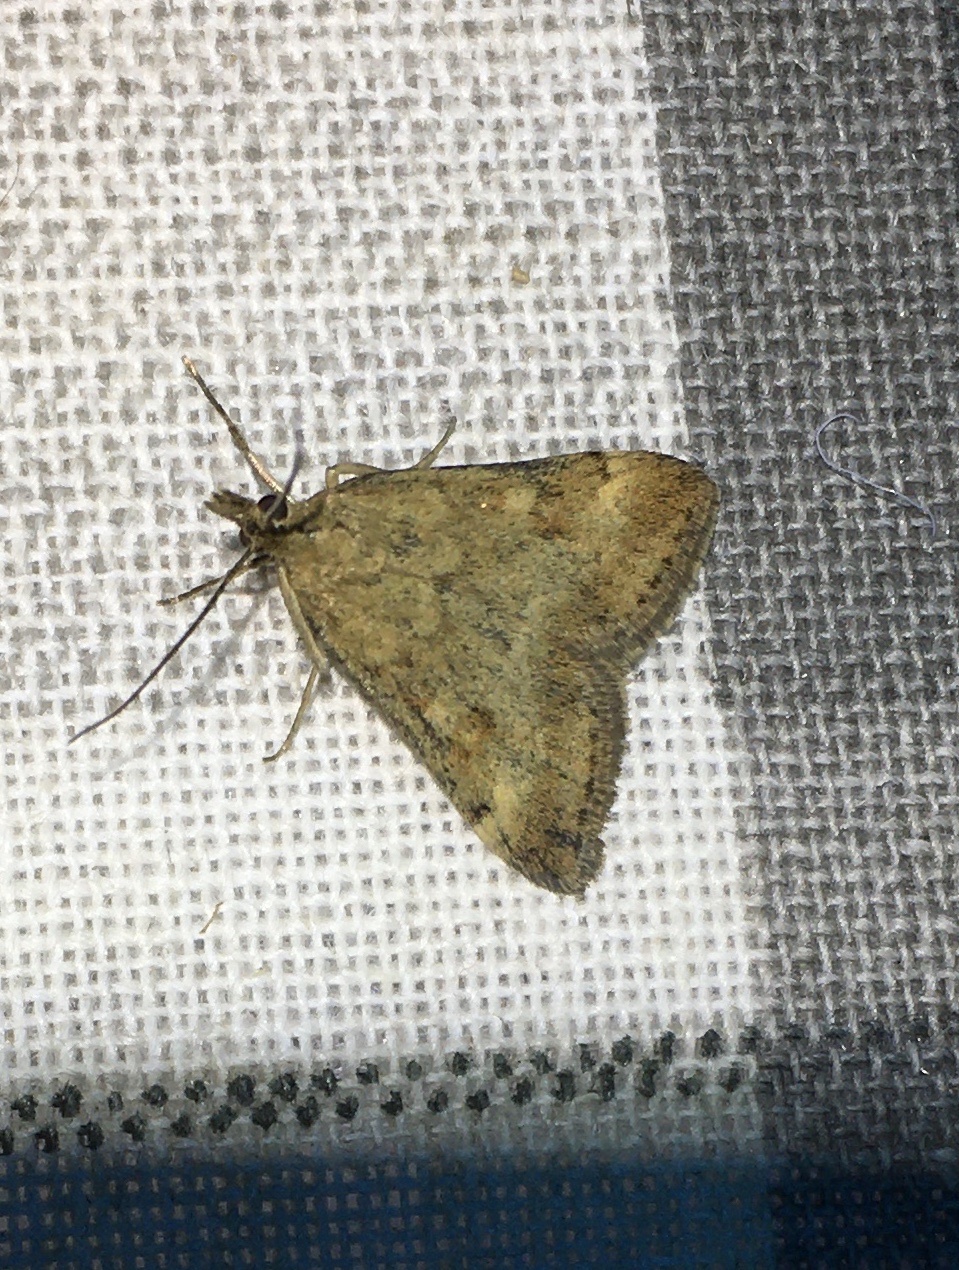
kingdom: Animalia
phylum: Arthropoda
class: Insecta
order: Lepidoptera
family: Crambidae
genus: Pyrausta
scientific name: Pyrausta despicata
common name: Straw-barred pearl
